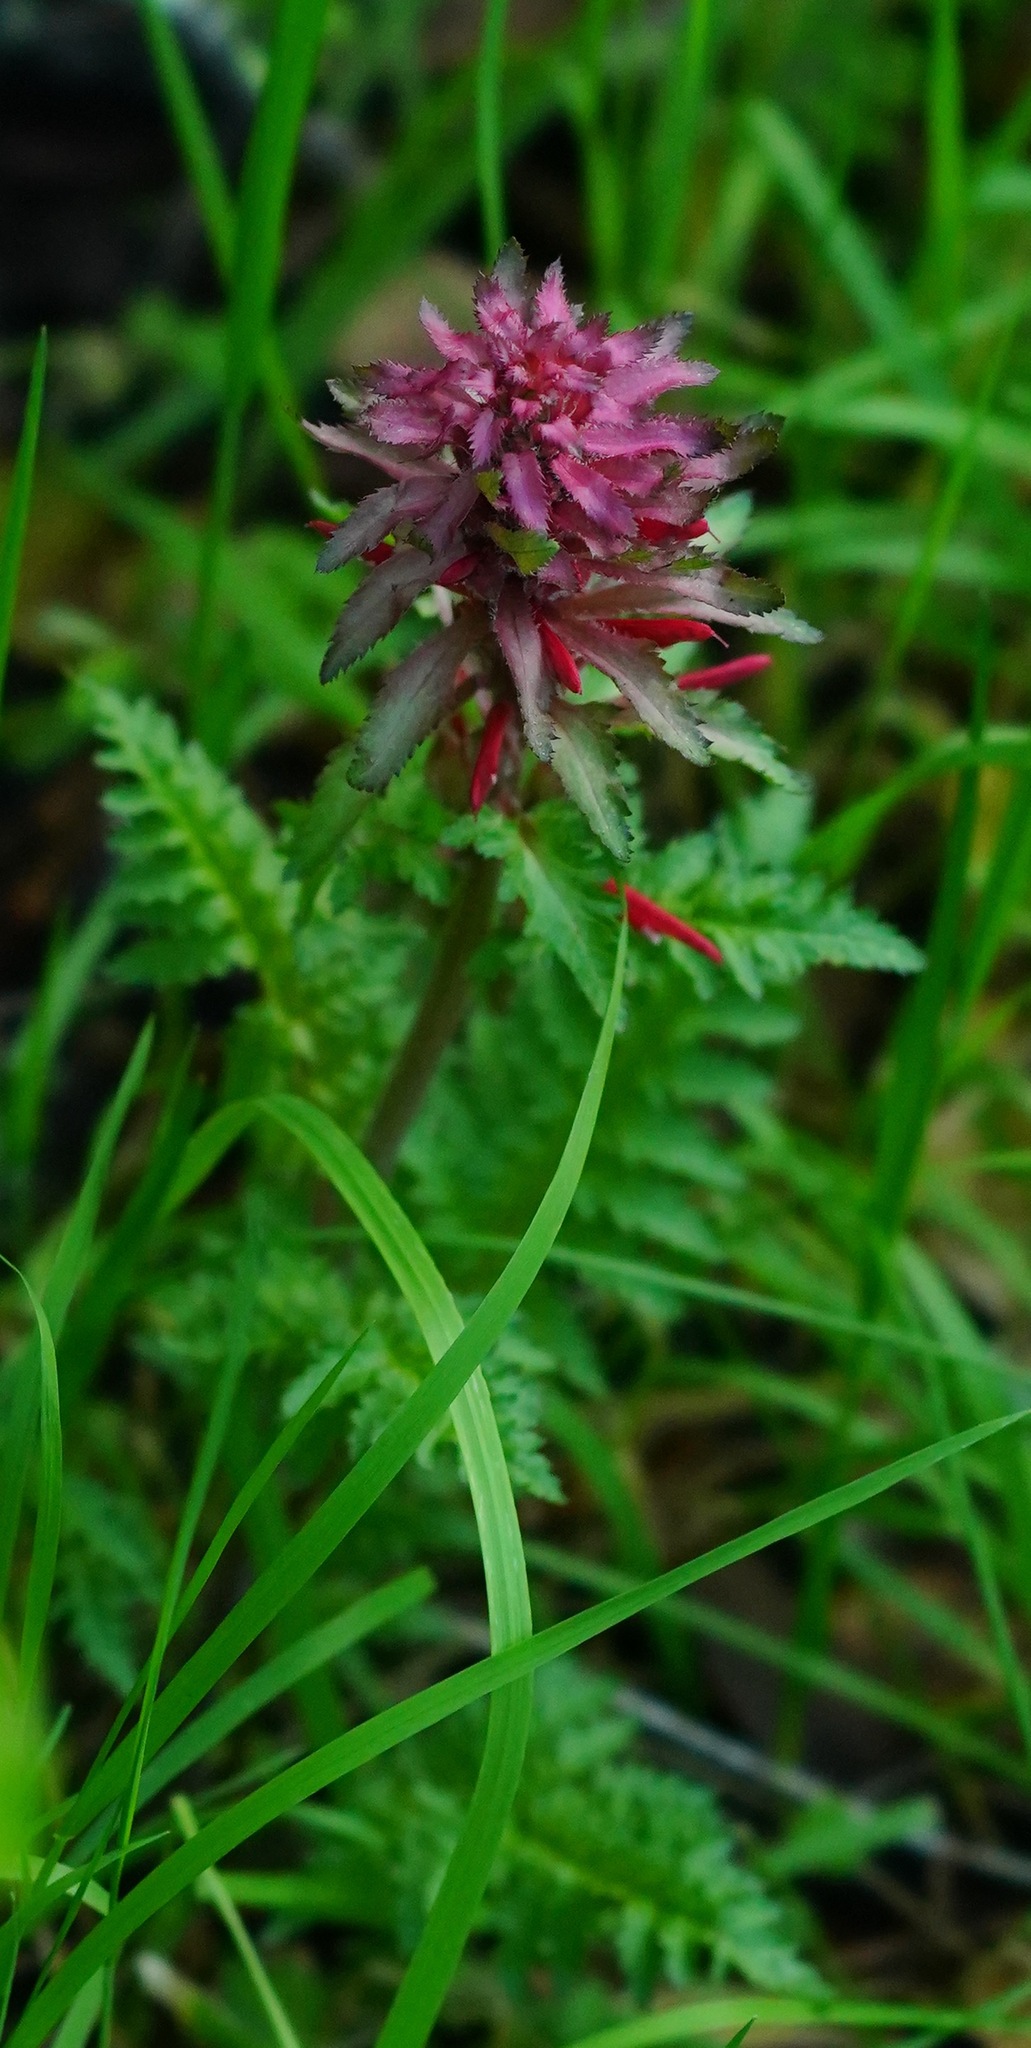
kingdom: Plantae
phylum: Tracheophyta
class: Magnoliopsida
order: Lamiales
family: Orobanchaceae
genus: Pedicularis
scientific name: Pedicularis densiflora
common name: Indian warrior
